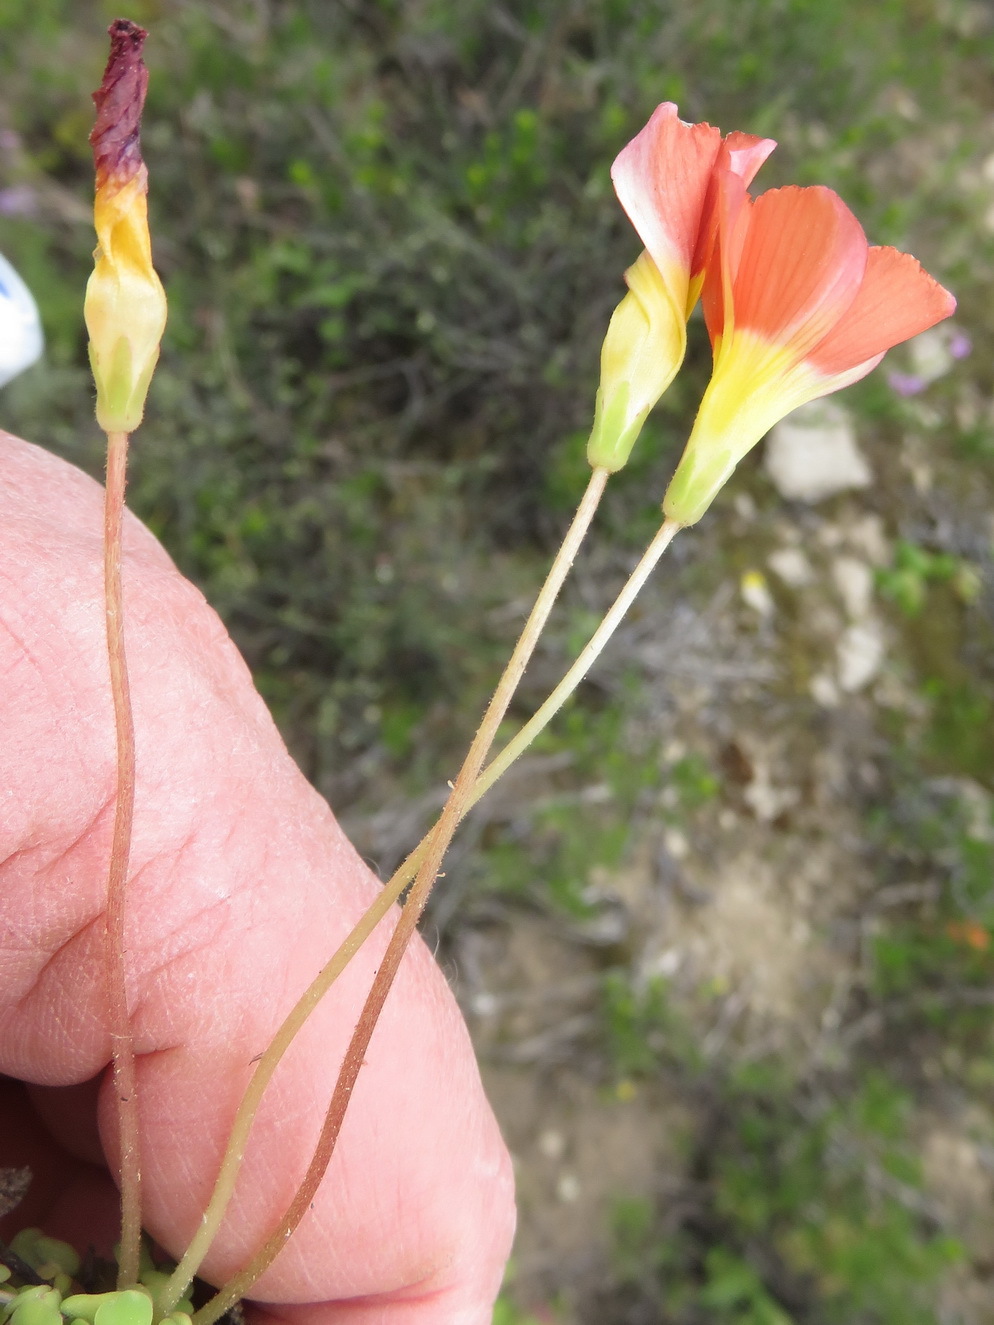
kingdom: Plantae
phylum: Tracheophyta
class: Magnoliopsida
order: Oxalidales
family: Oxalidaceae
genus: Oxalis
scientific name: Oxalis fergusoniae
